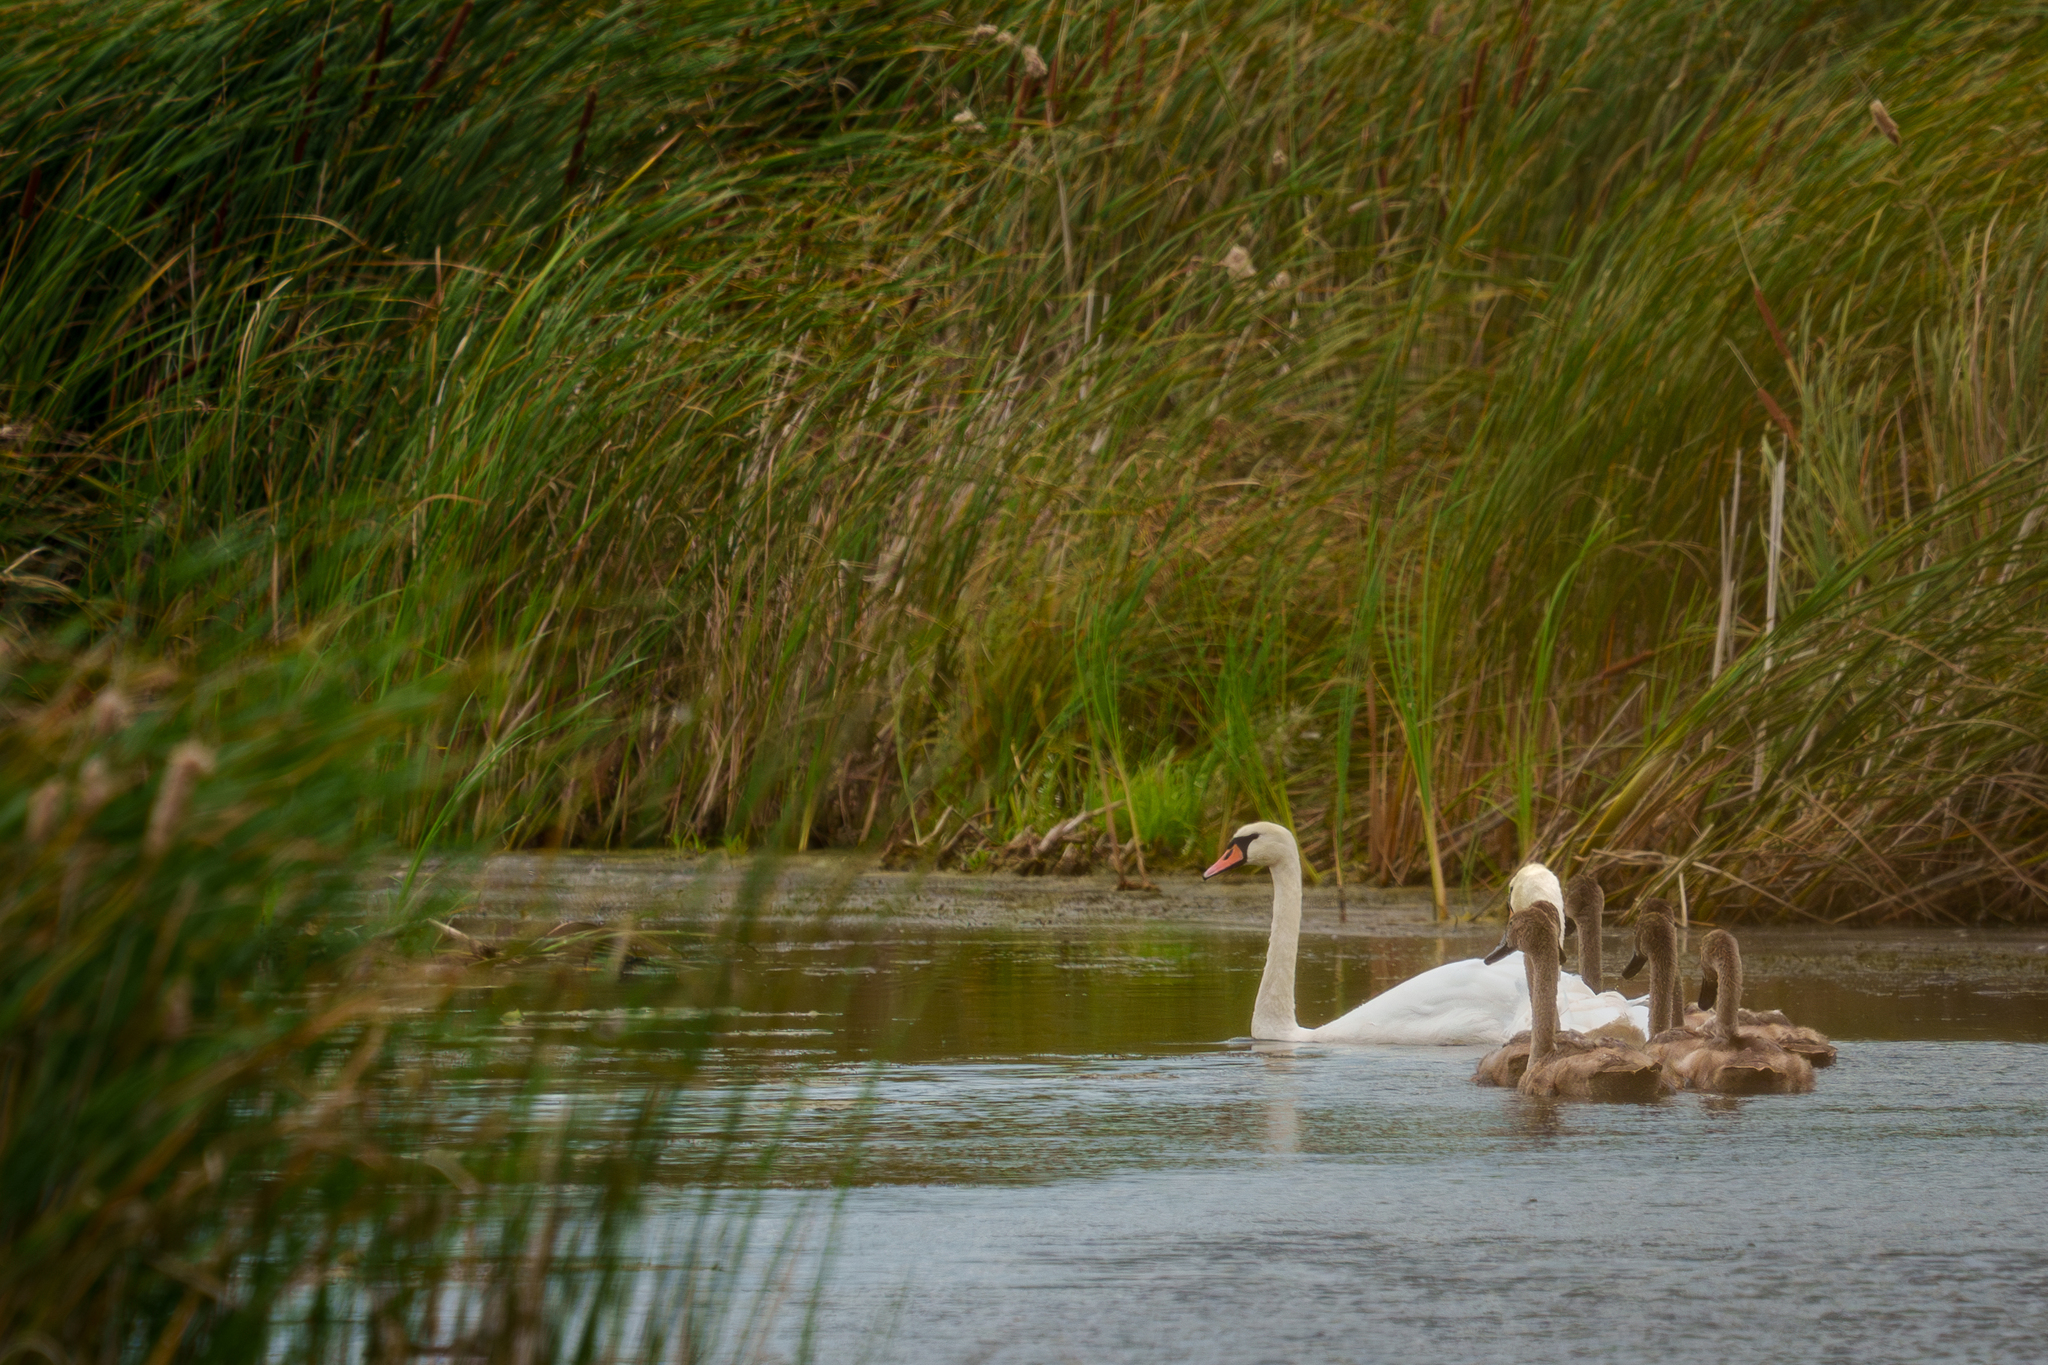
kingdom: Animalia
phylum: Chordata
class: Aves
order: Anseriformes
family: Anatidae
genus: Cygnus
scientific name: Cygnus olor
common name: Mute swan
